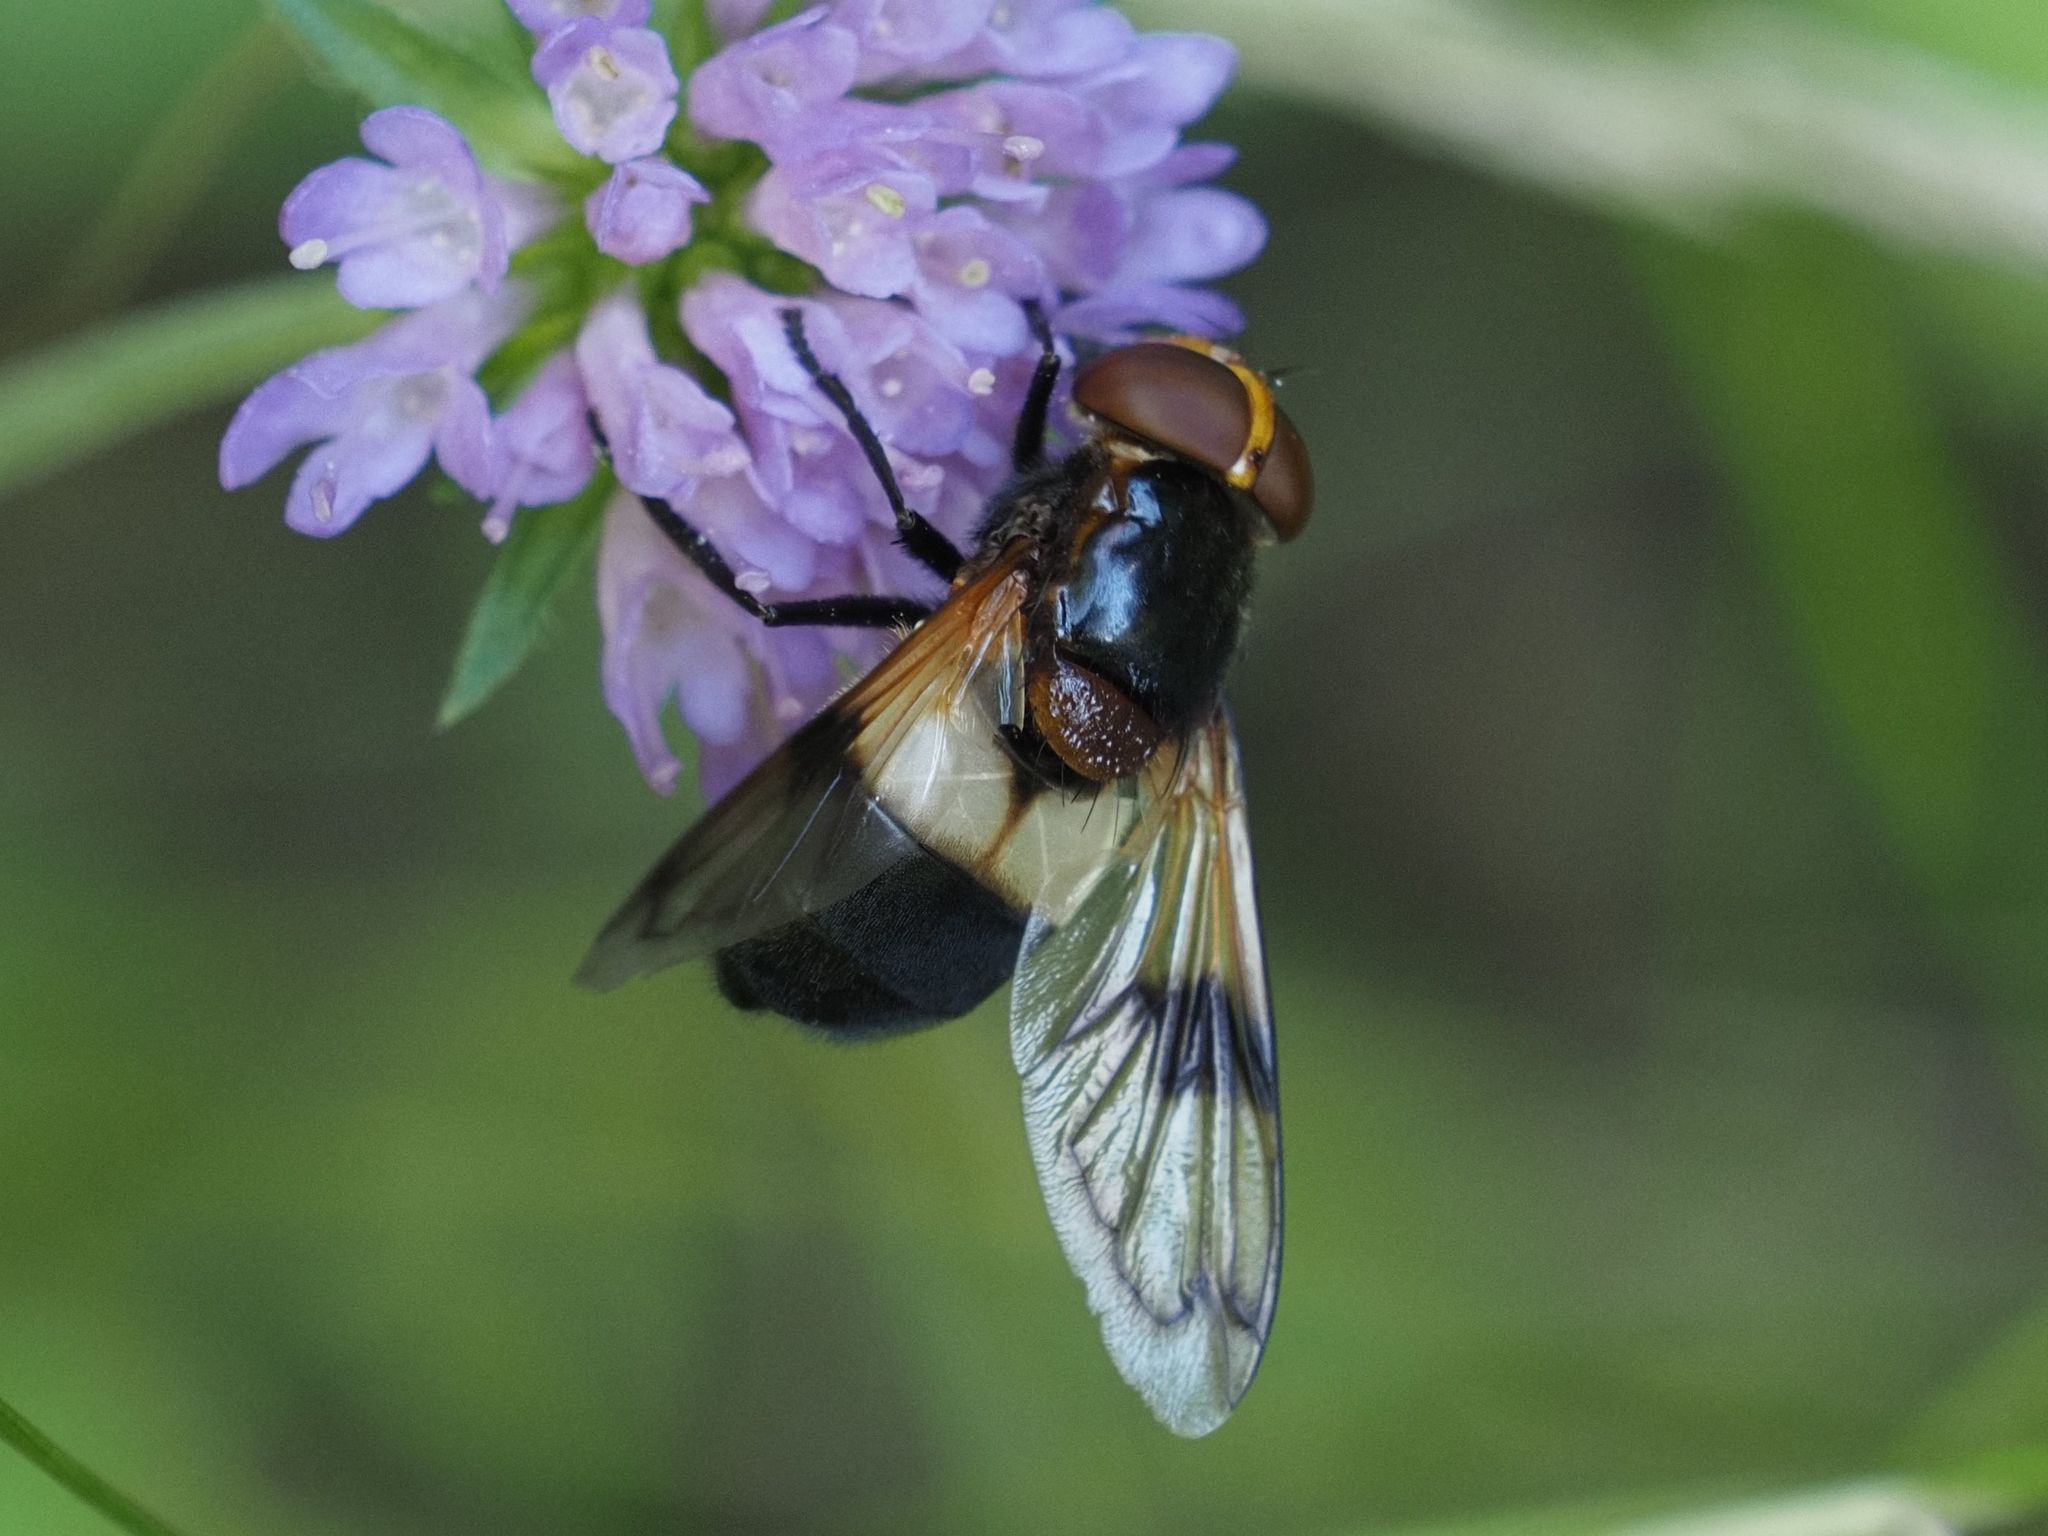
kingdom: Animalia
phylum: Arthropoda
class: Insecta
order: Diptera
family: Syrphidae
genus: Volucella
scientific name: Volucella pellucens
